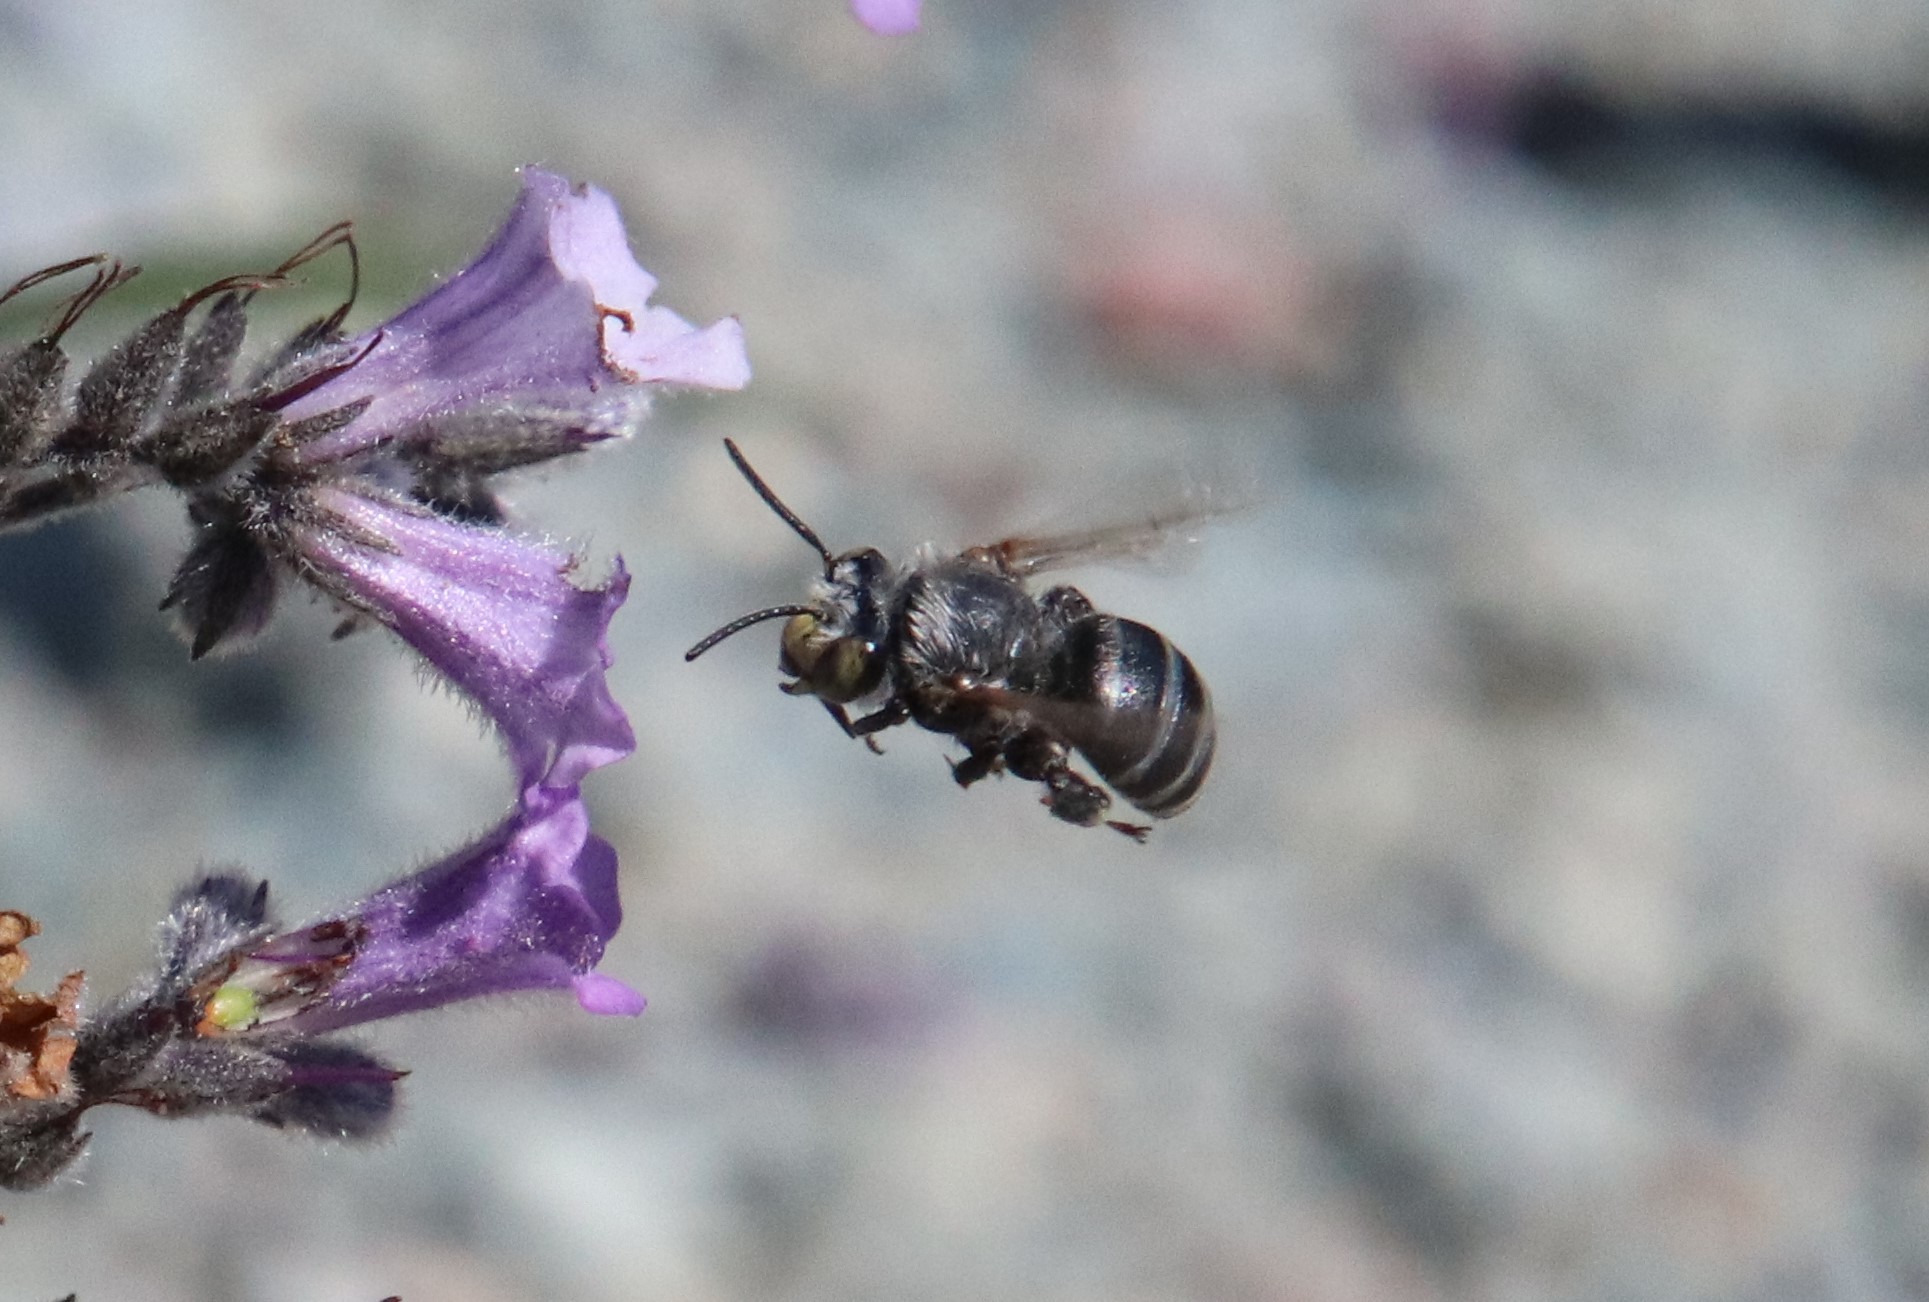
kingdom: Animalia
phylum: Arthropoda
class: Insecta
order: Hymenoptera
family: Apidae
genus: Anthophora
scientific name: Anthophora californica
